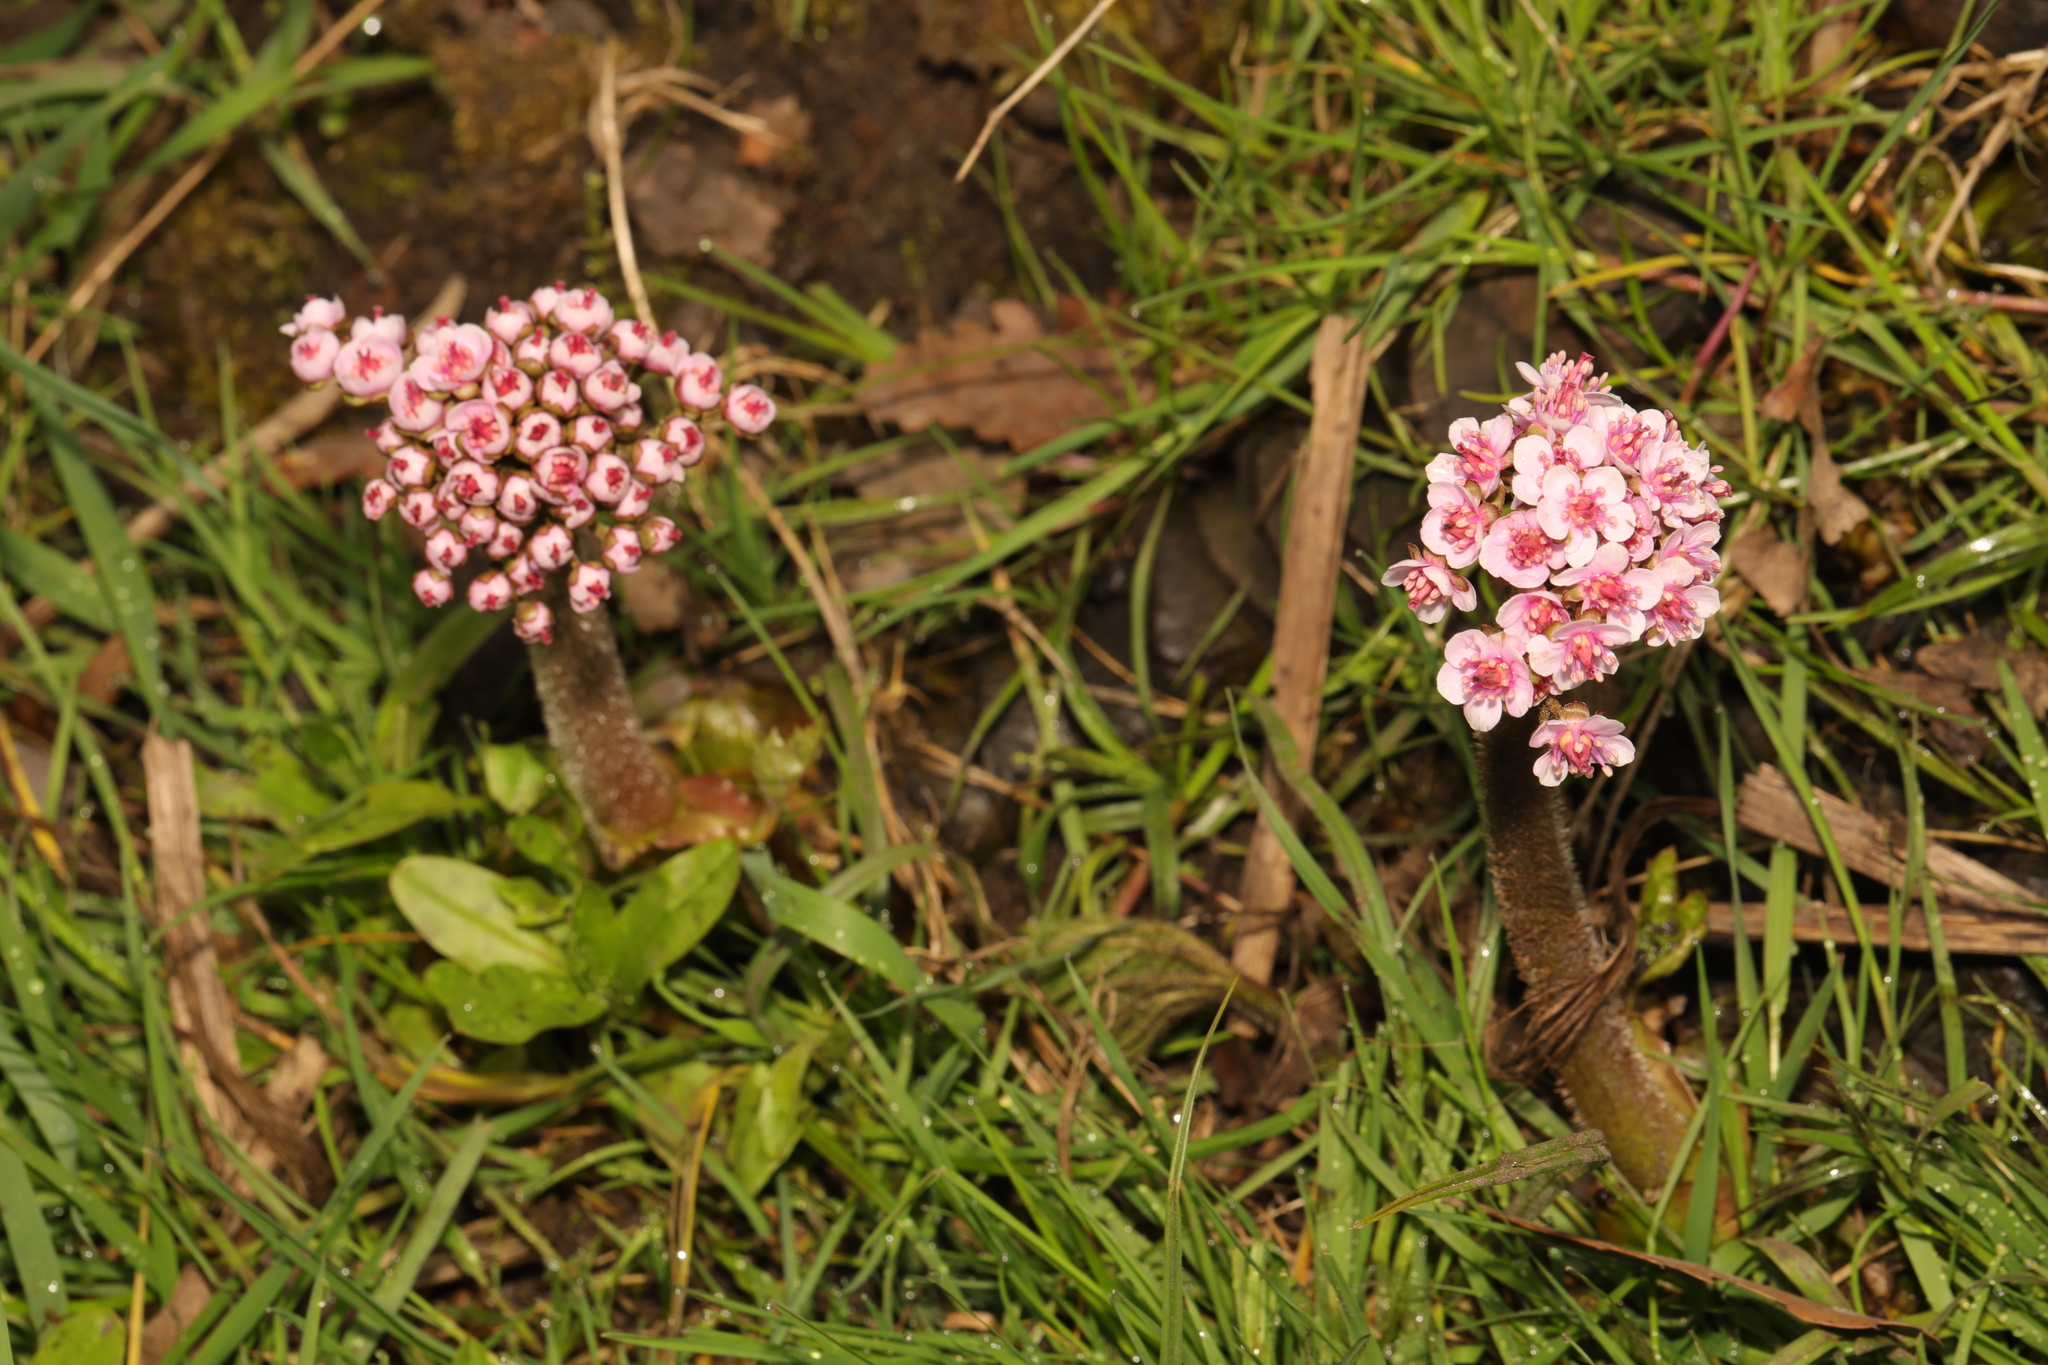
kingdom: Plantae
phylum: Tracheophyta
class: Magnoliopsida
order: Saxifragales
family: Saxifragaceae
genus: Darmera
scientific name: Darmera peltata
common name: Indian-rhubarb
